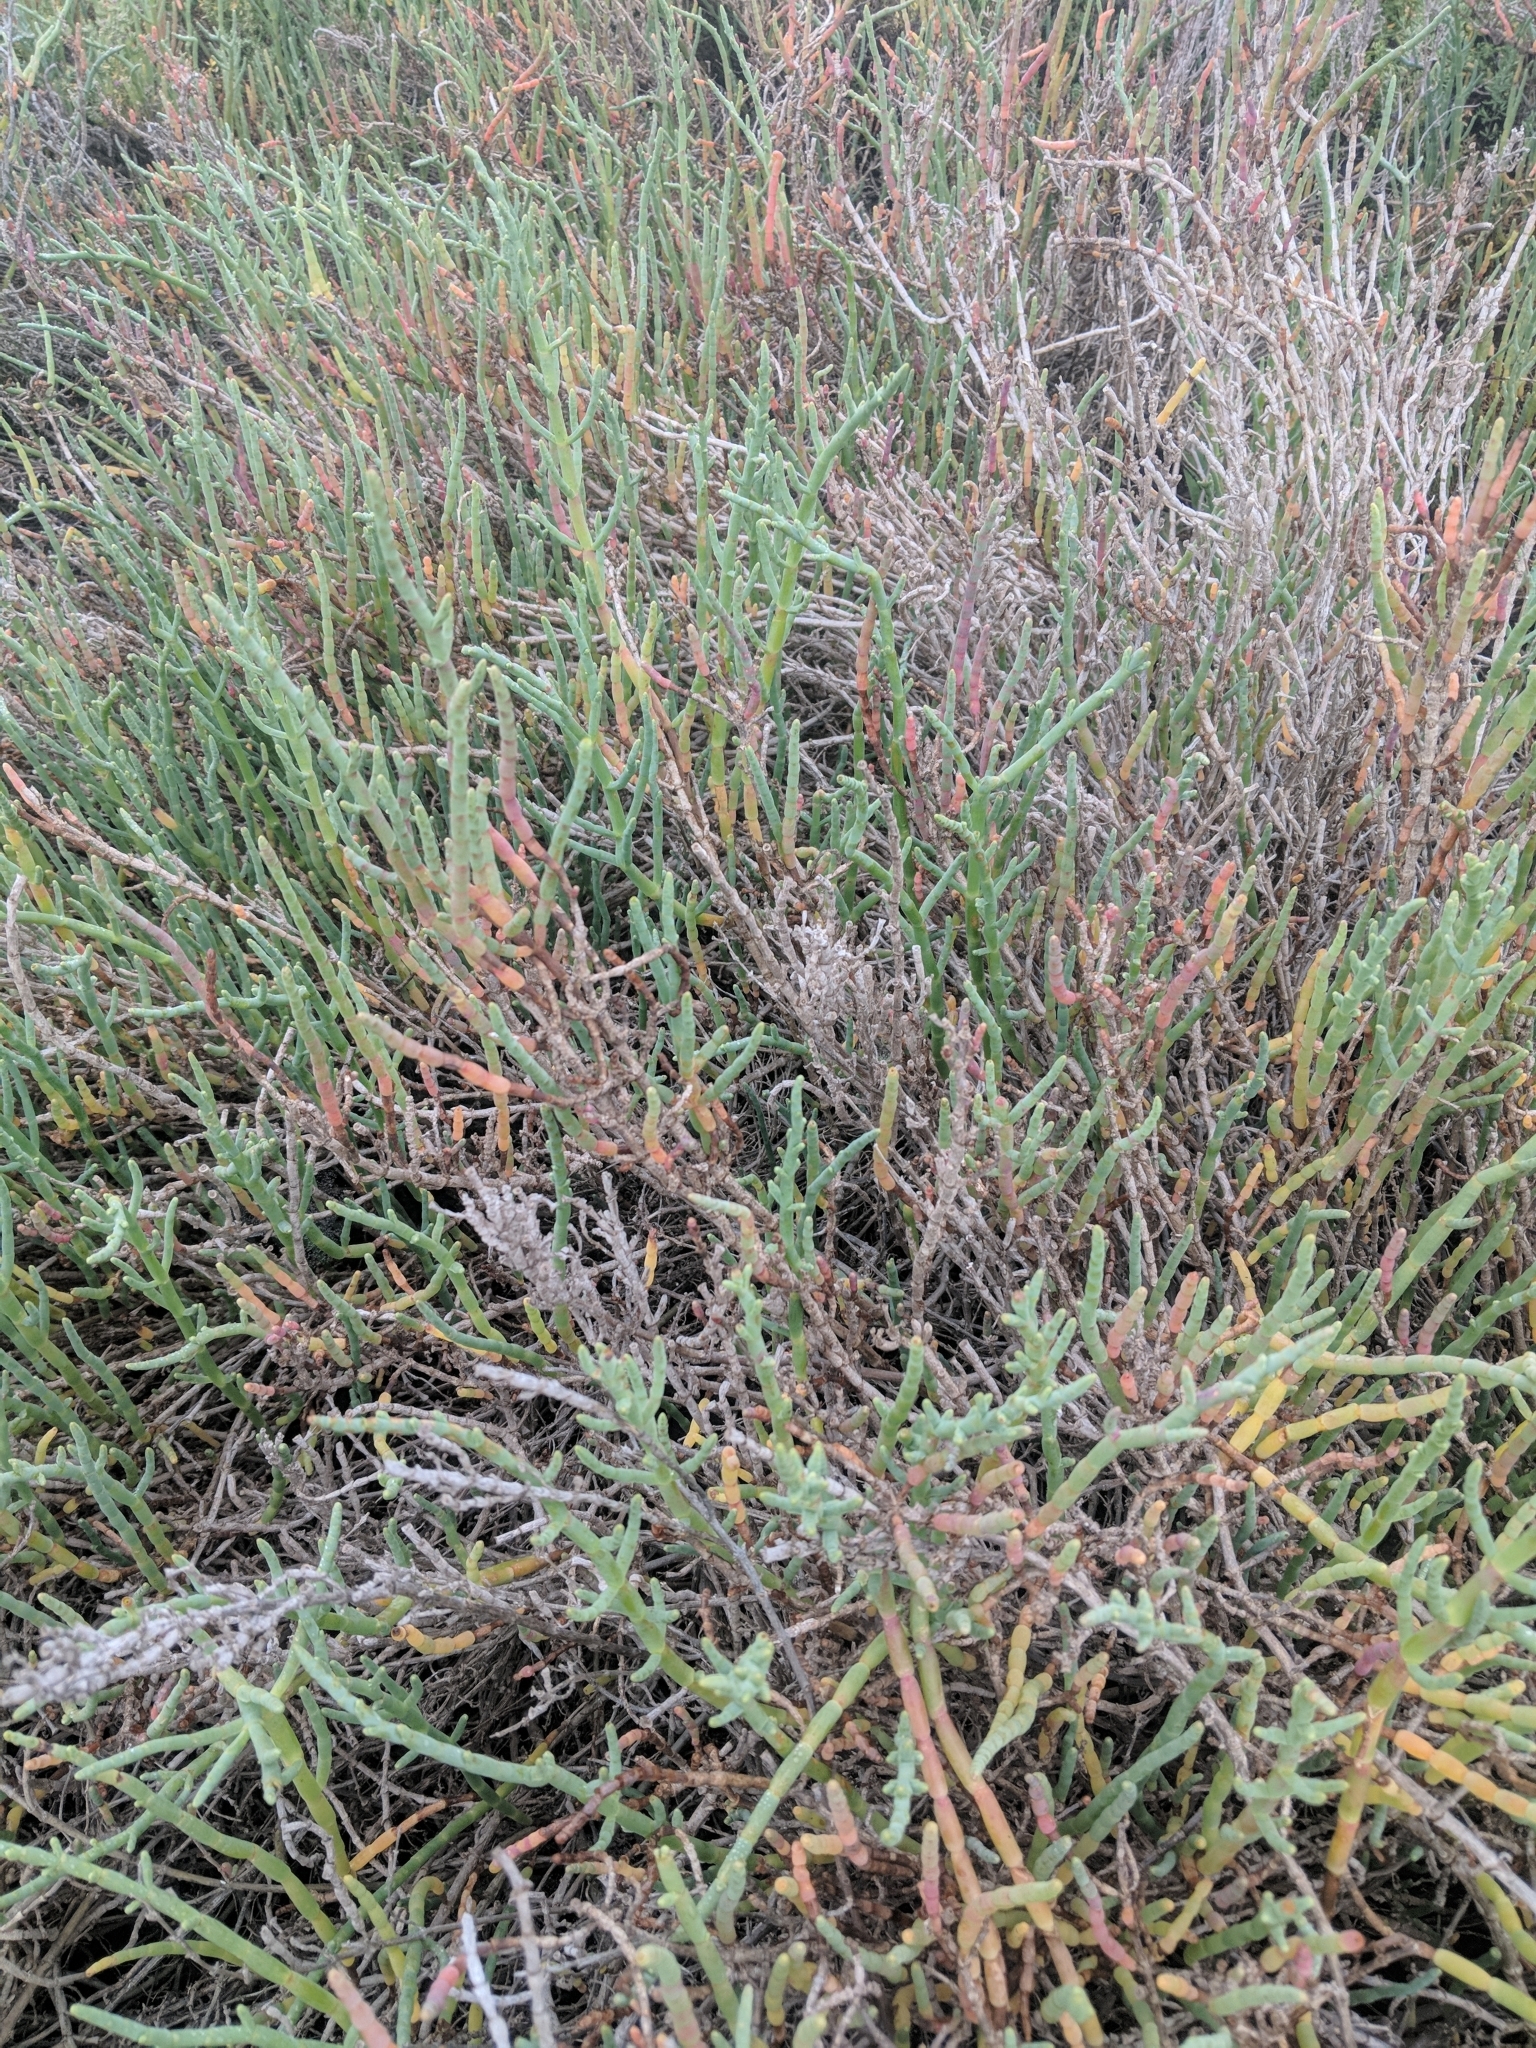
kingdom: Plantae
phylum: Tracheophyta
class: Magnoliopsida
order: Caryophyllales
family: Amaranthaceae
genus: Salicornia
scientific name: Salicornia pacifica
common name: Pacific glasswort
